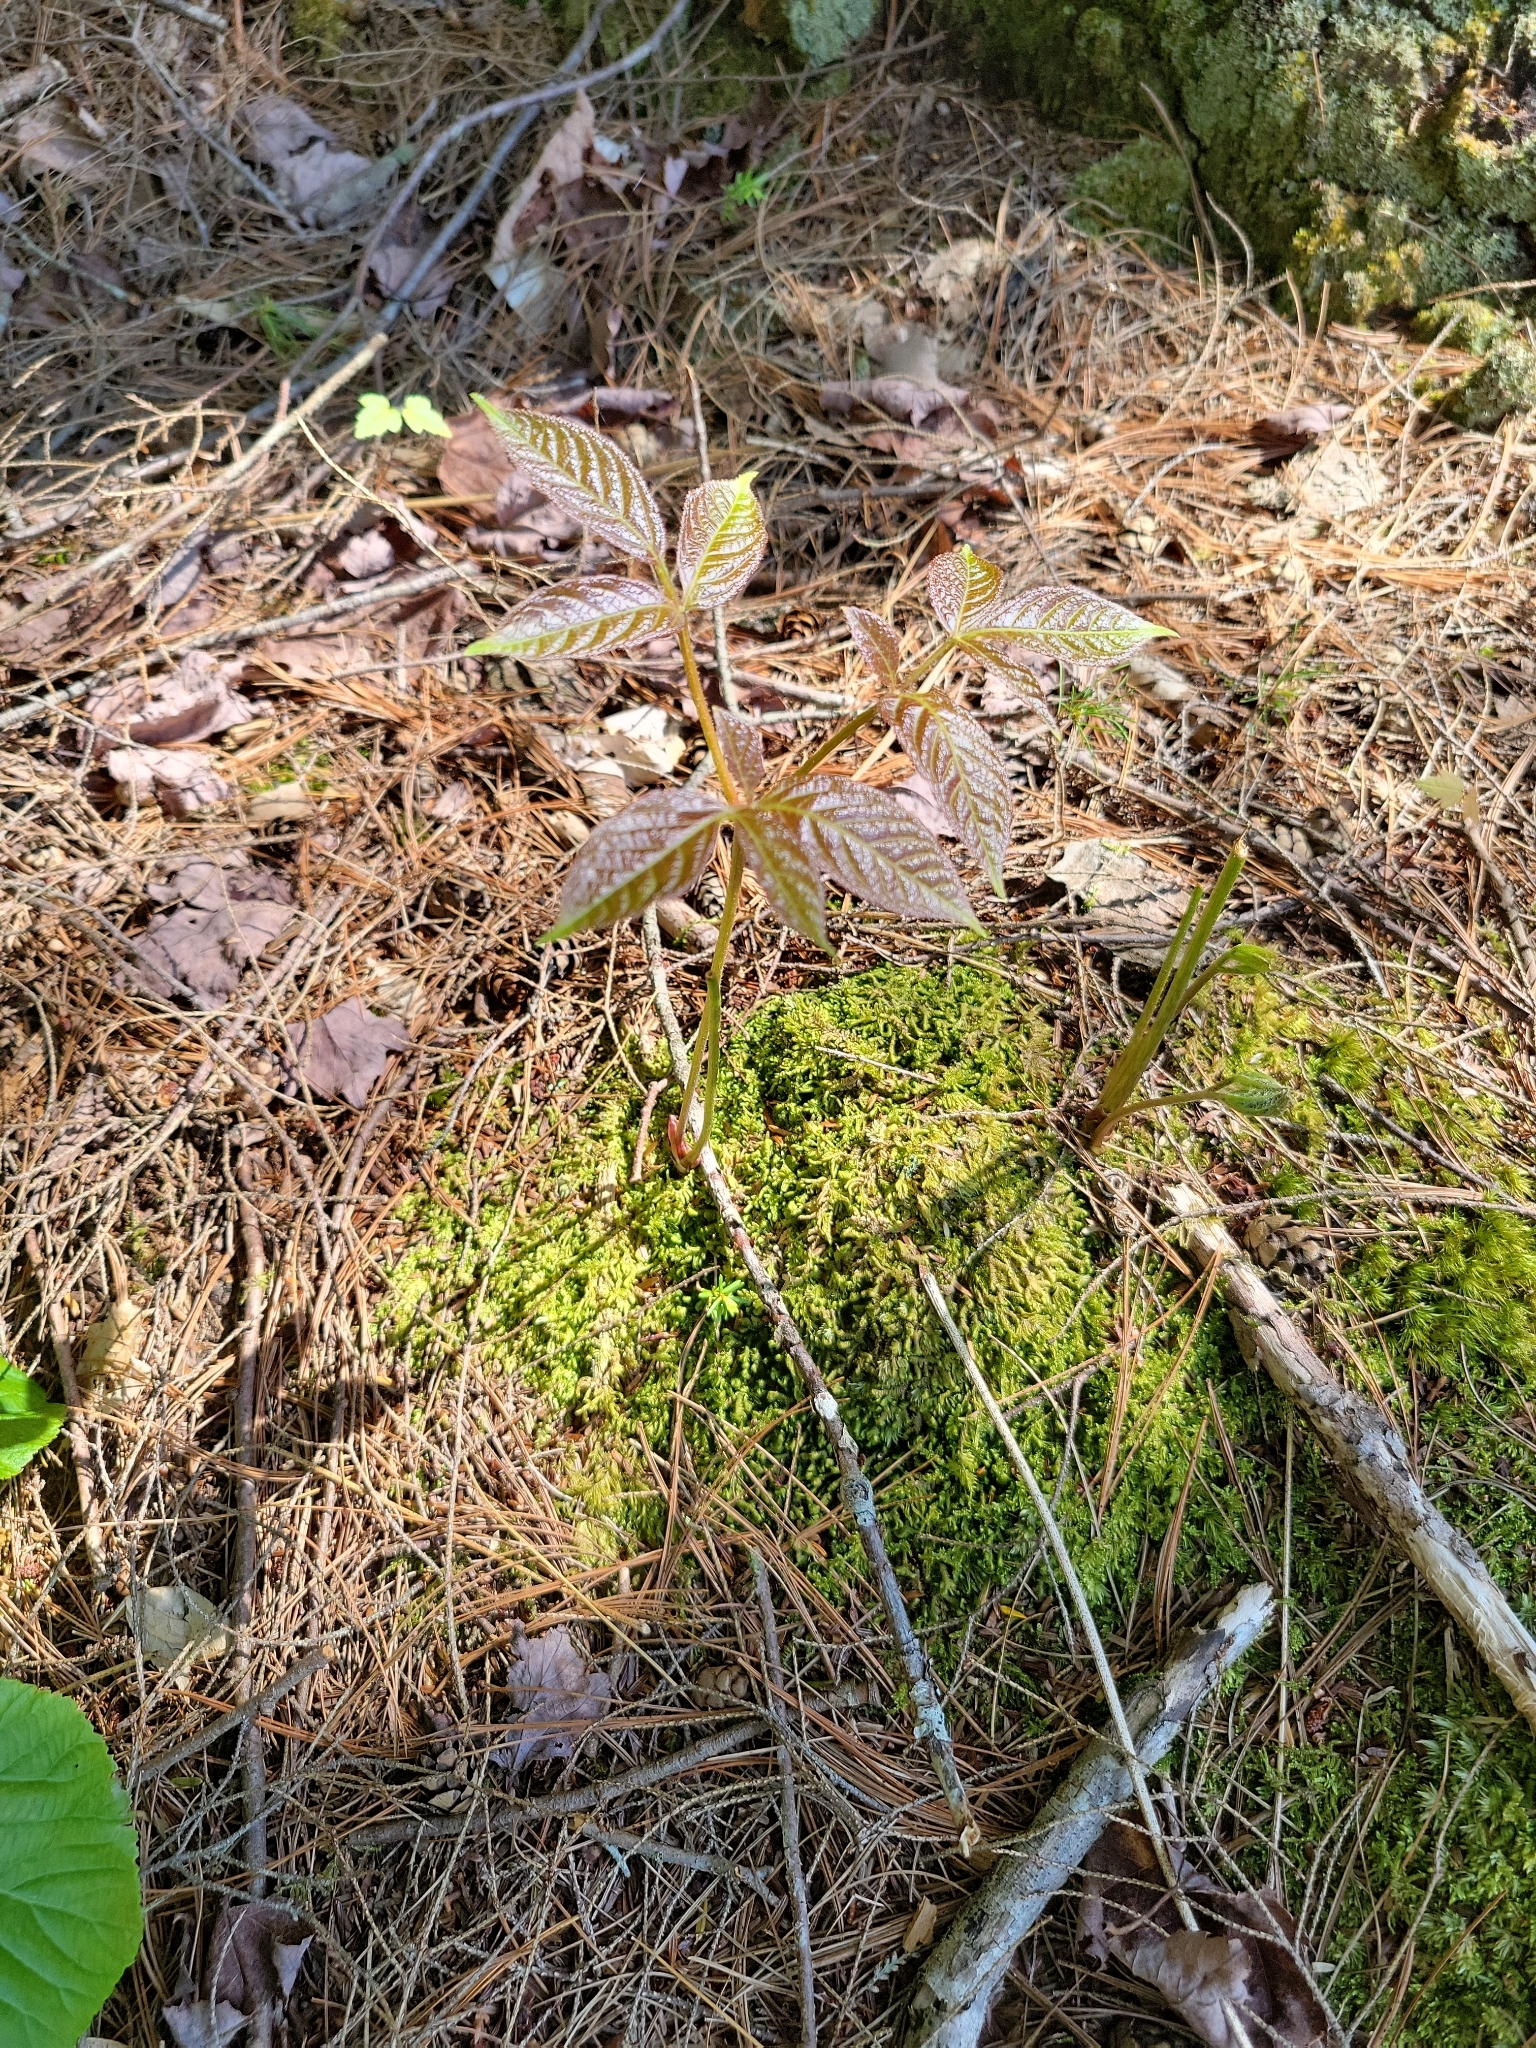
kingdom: Plantae
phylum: Tracheophyta
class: Magnoliopsida
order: Apiales
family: Araliaceae
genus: Aralia
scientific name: Aralia nudicaulis
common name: Wild sarsaparilla
